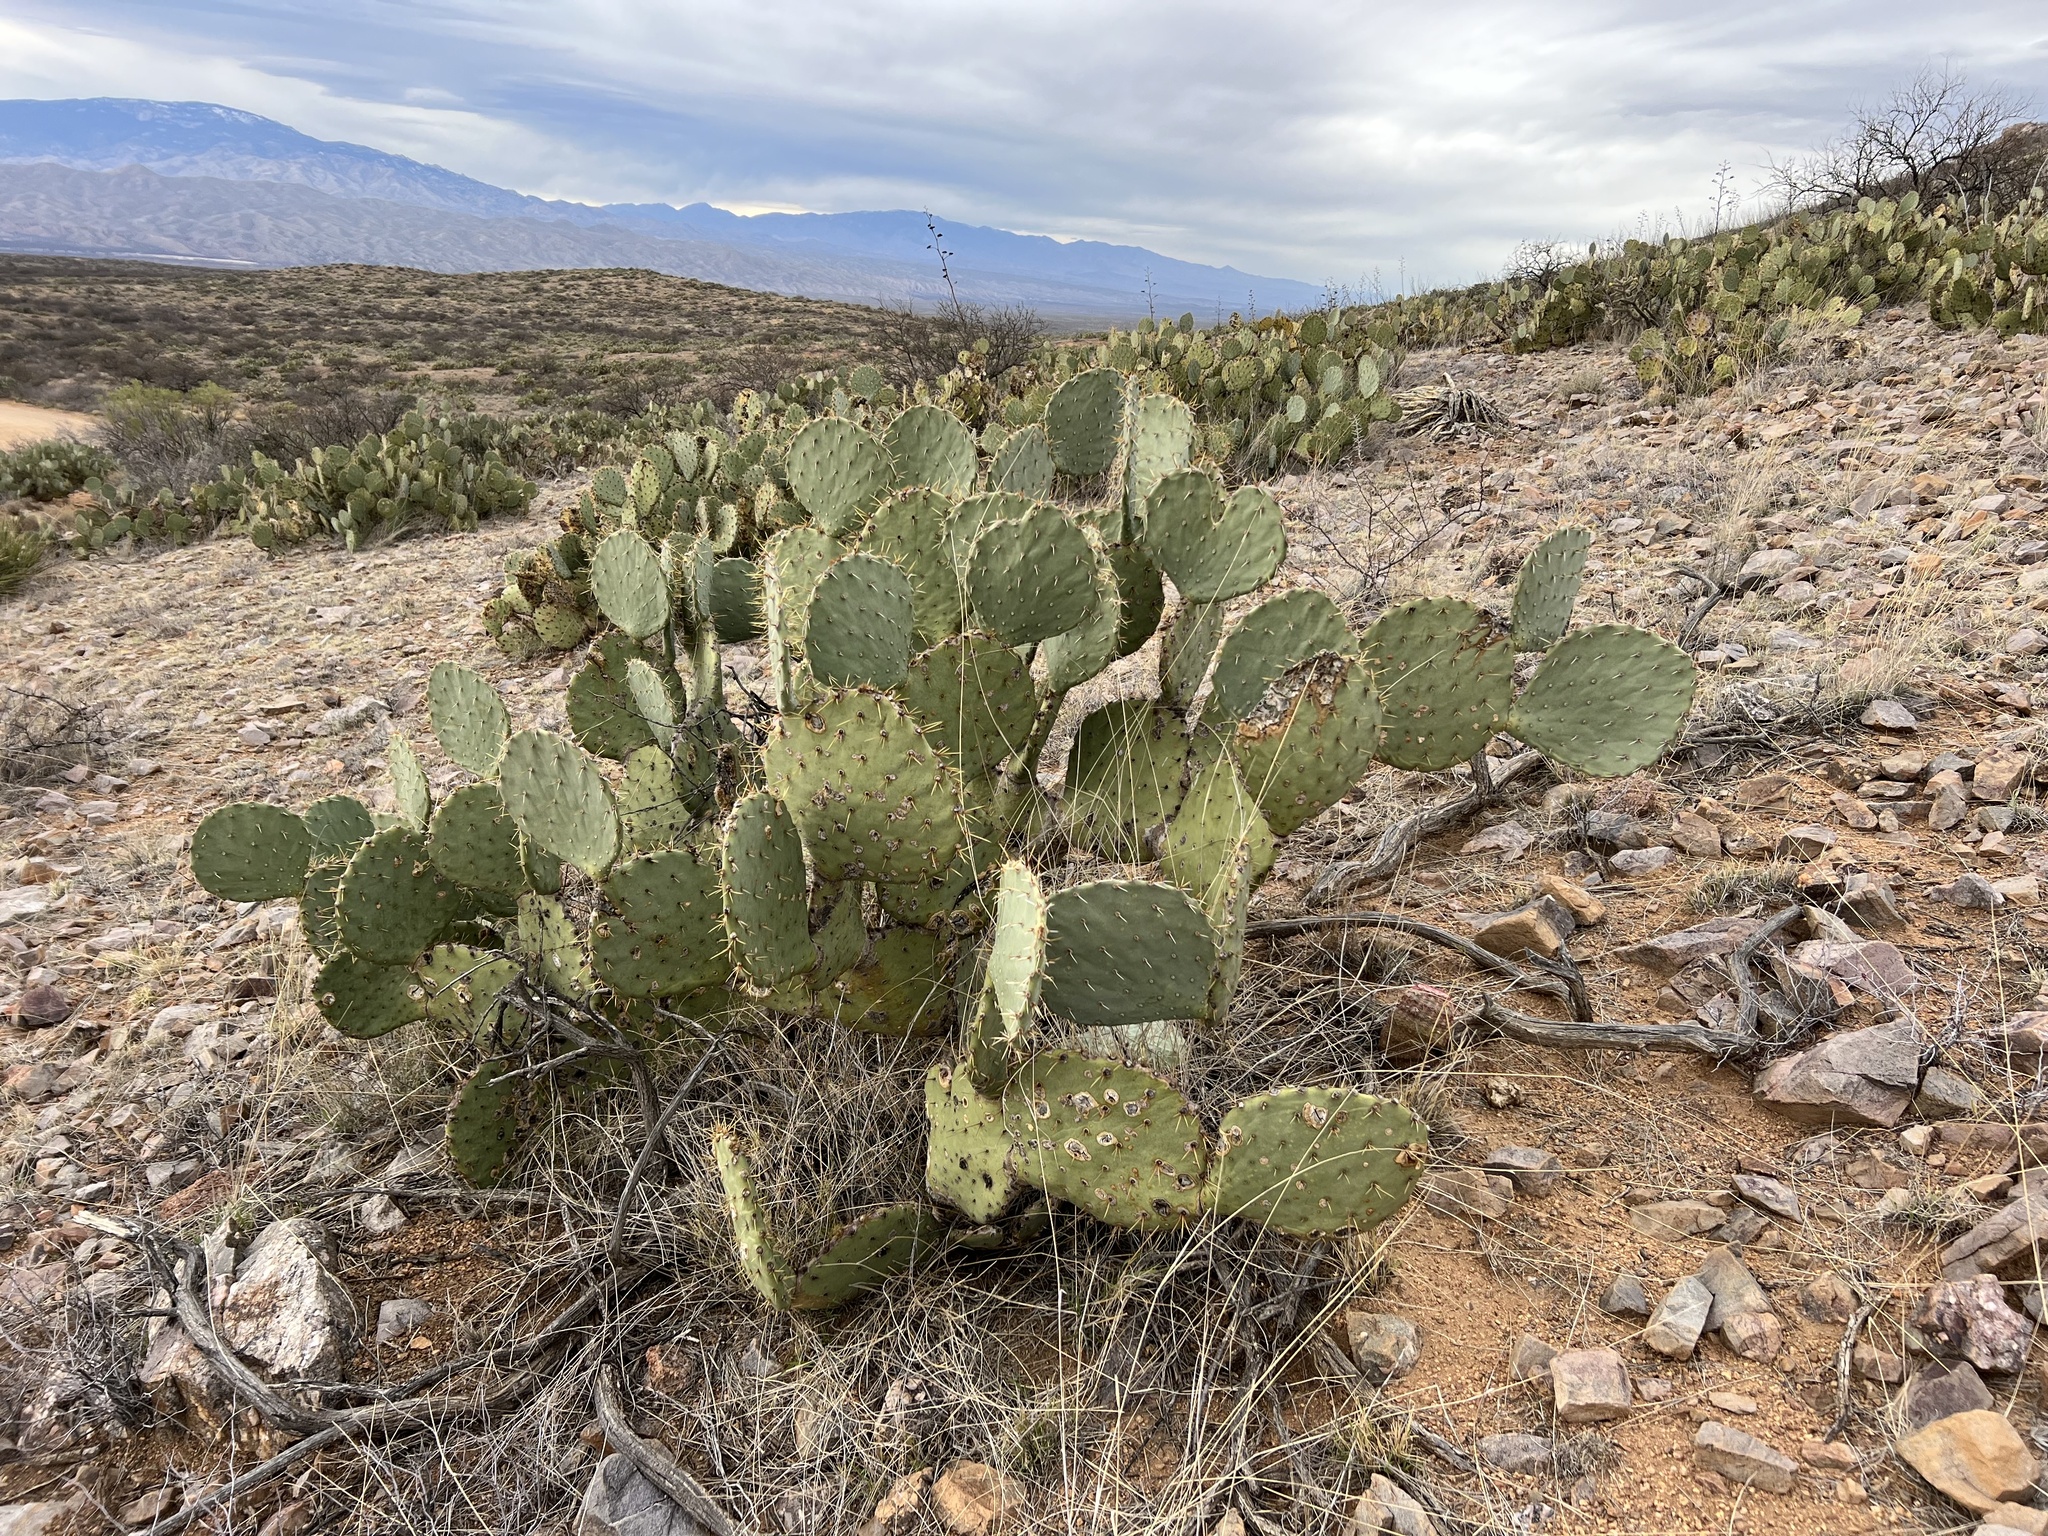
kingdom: Plantae
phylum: Tracheophyta
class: Magnoliopsida
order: Caryophyllales
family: Cactaceae
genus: Opuntia
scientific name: Opuntia engelmannii
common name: Cactus-apple
